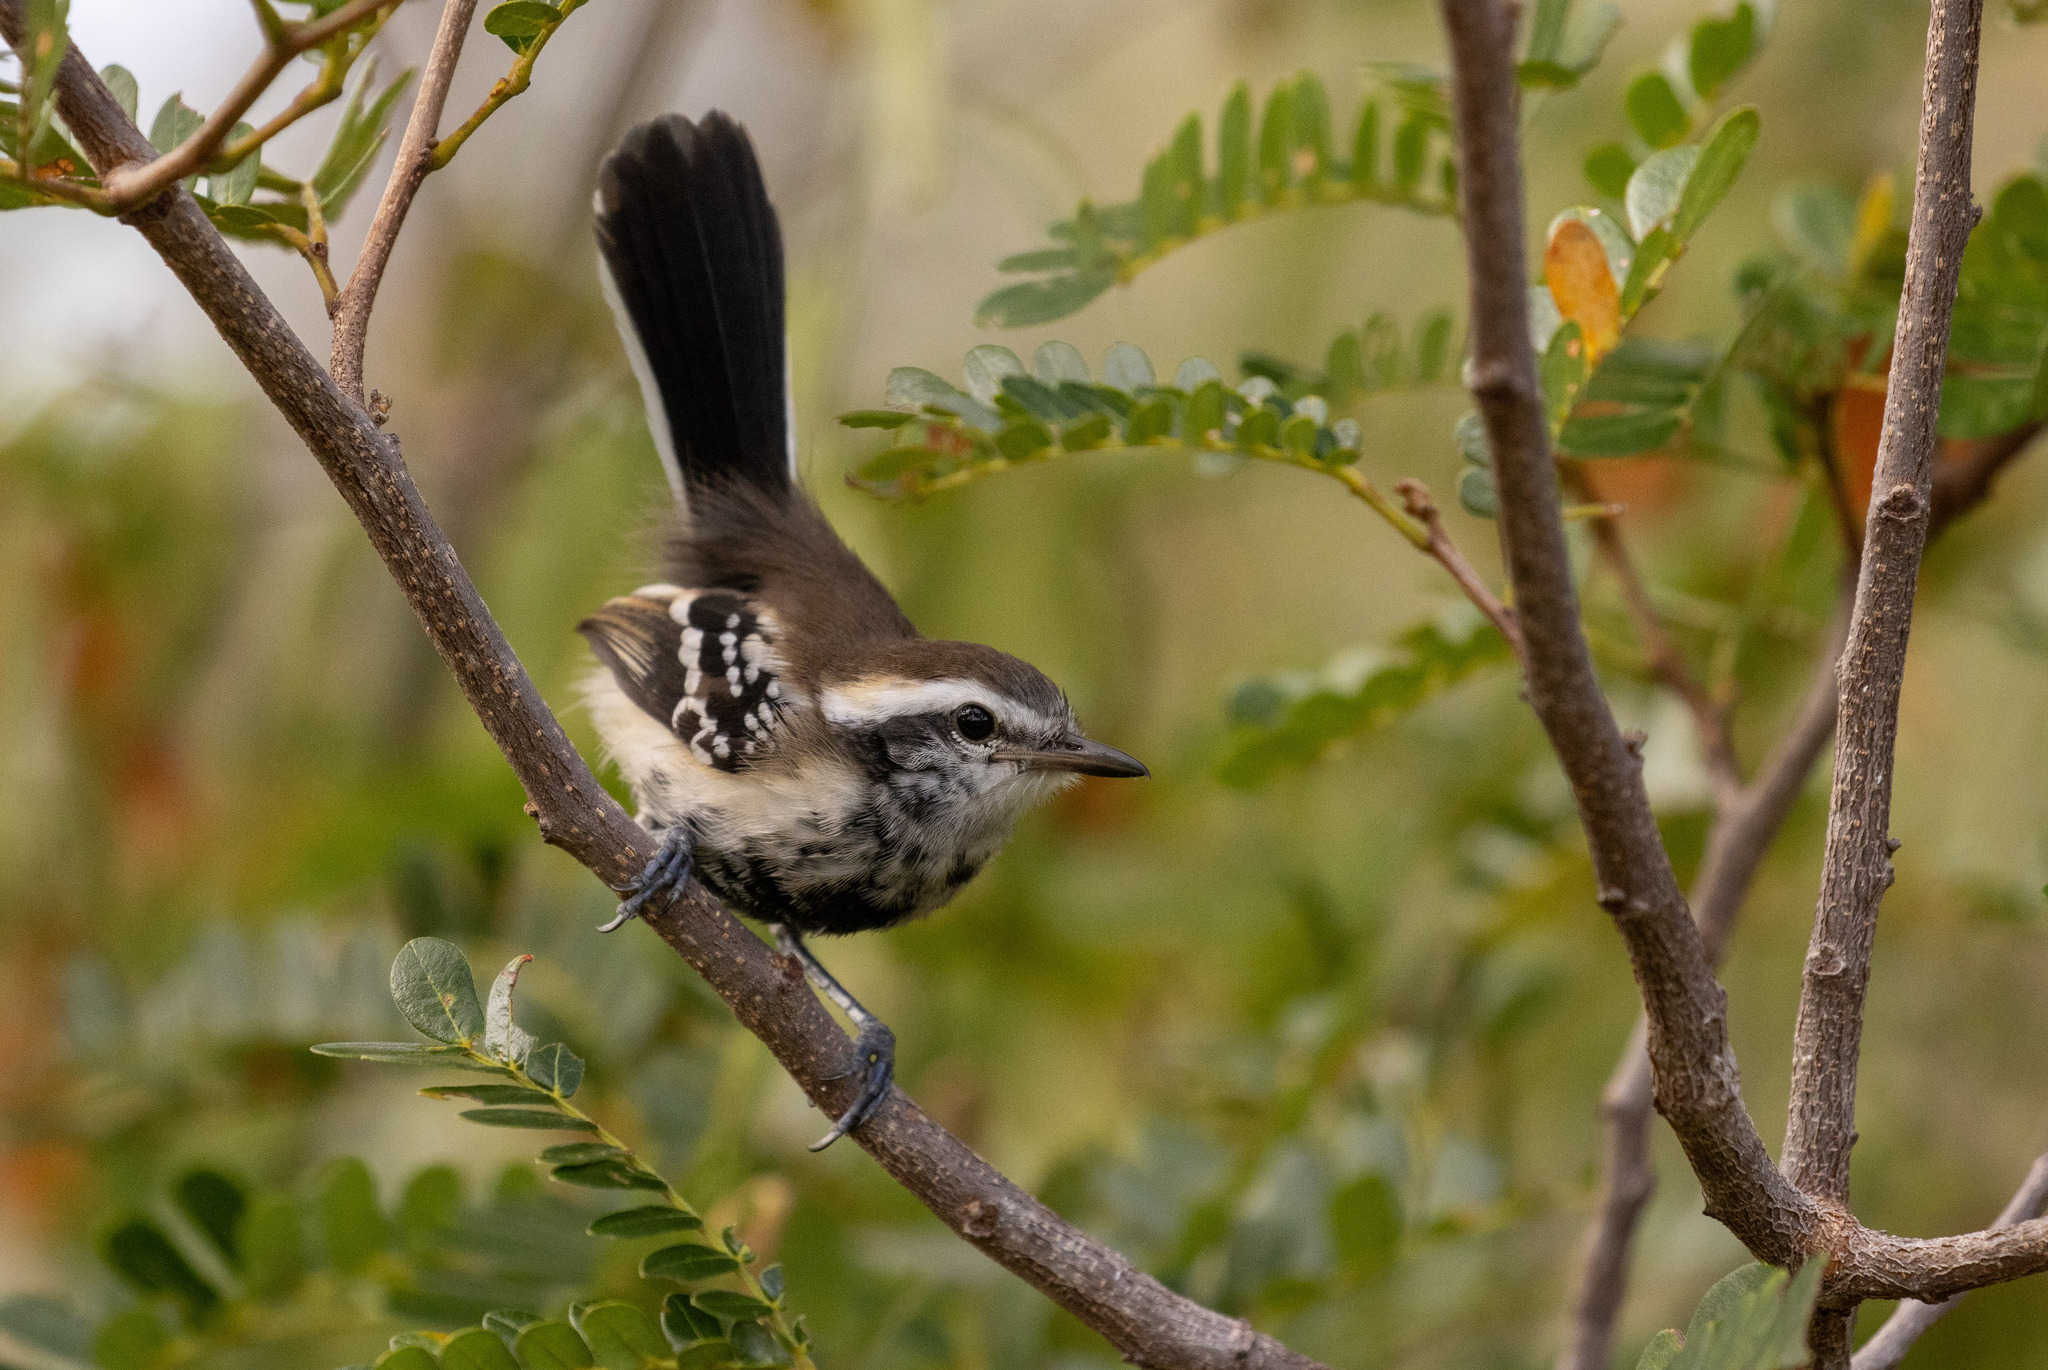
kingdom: Animalia
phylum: Chordata
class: Aves
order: Passeriformes
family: Thamnophilidae
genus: Formicivora
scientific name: Formicivora melanogaster
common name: Black-bellied antwren
